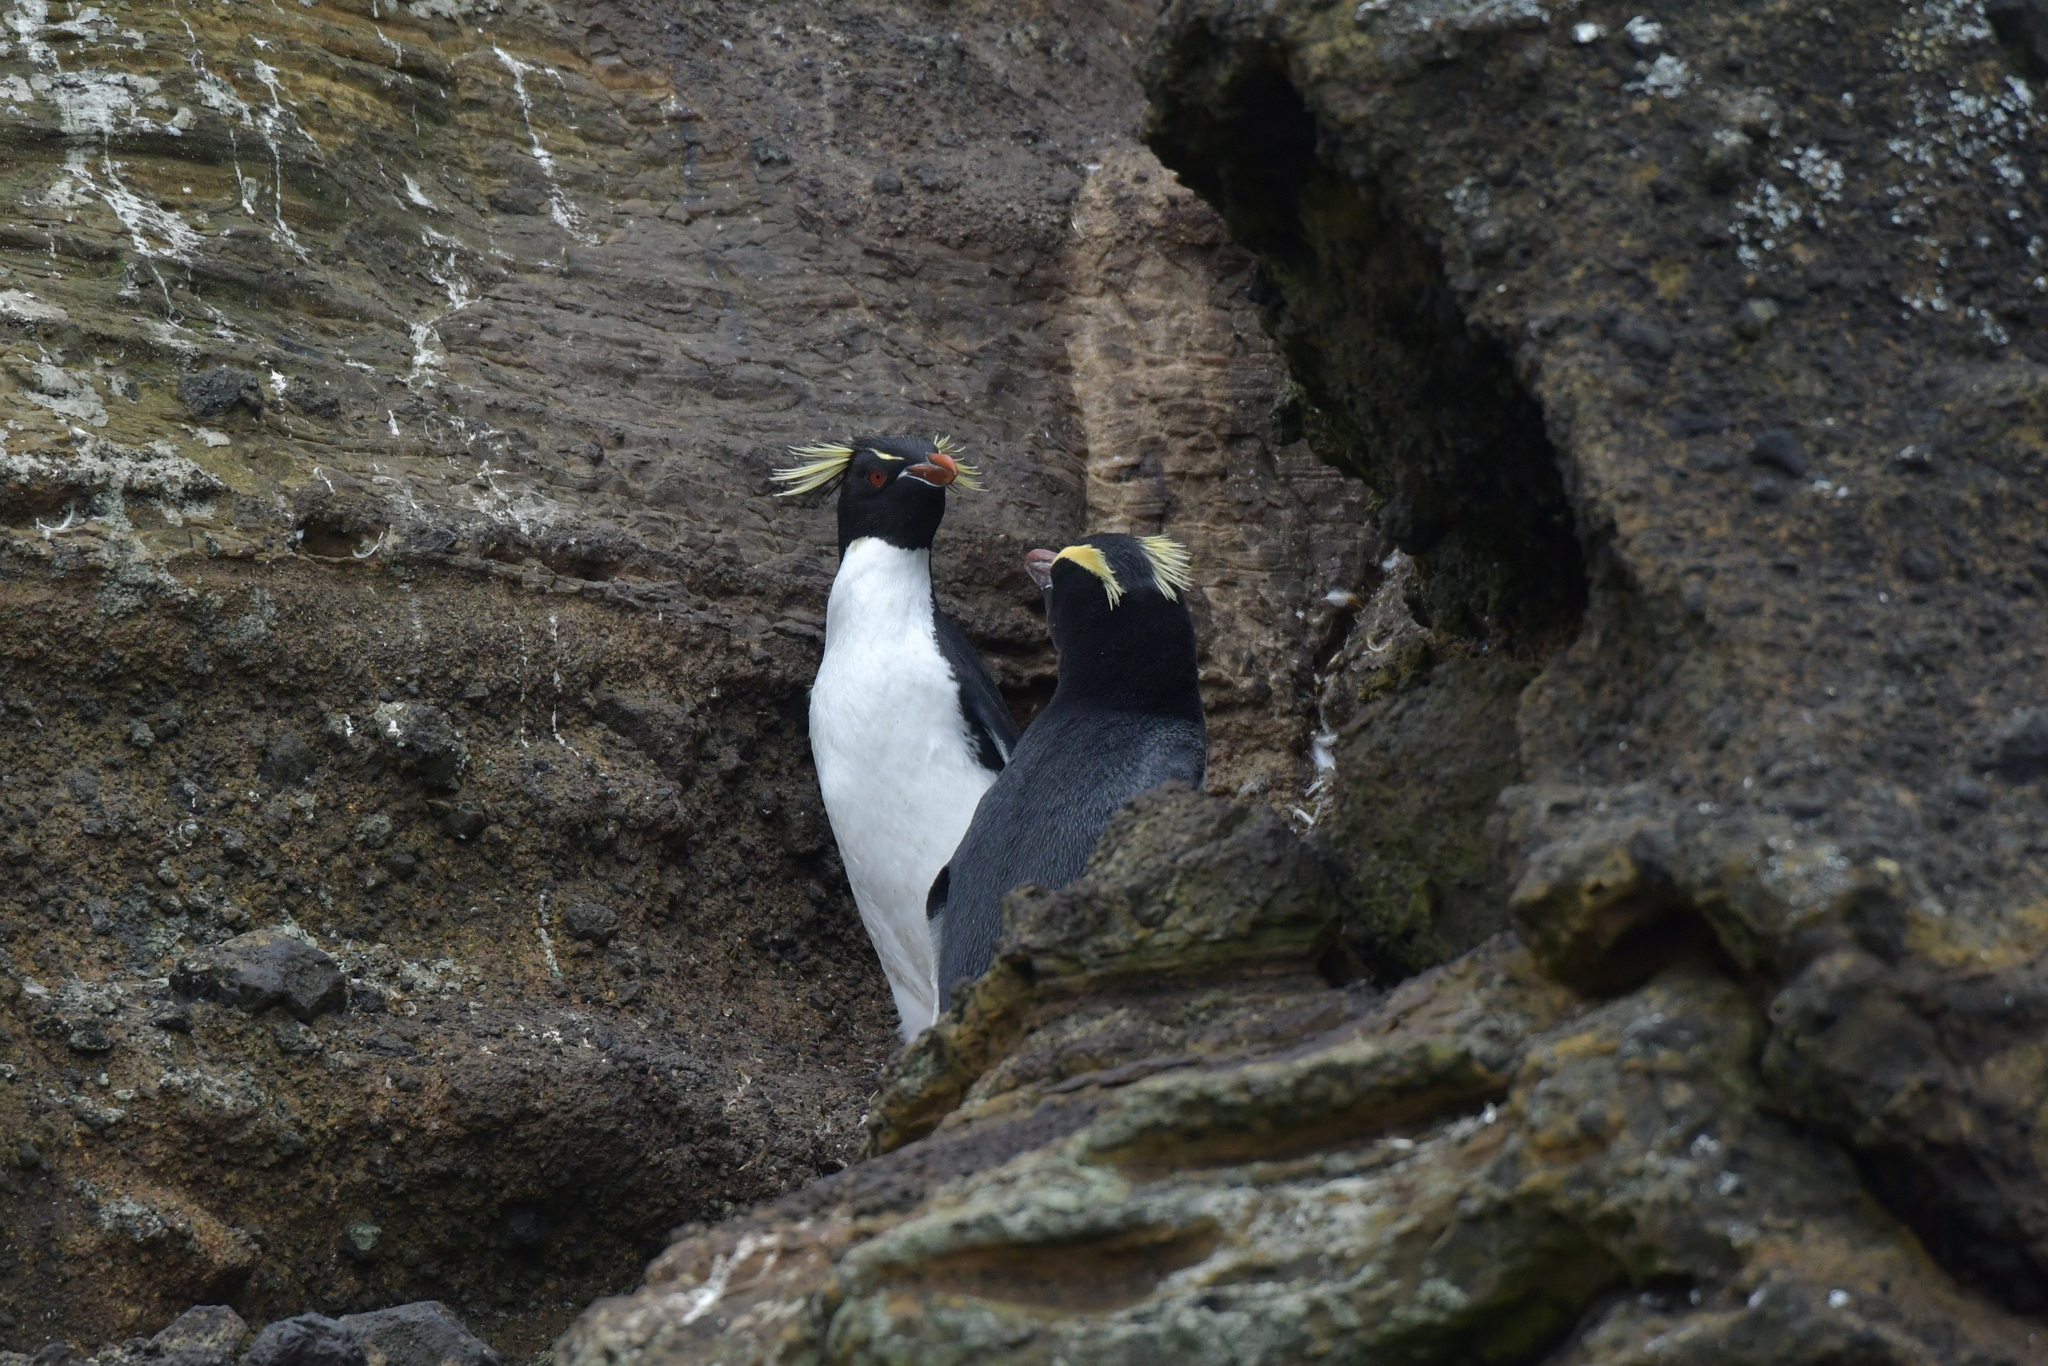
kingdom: Animalia
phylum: Chordata
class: Aves
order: Sphenisciformes
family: Spheniscidae
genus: Eudyptes
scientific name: Eudyptes filholi
